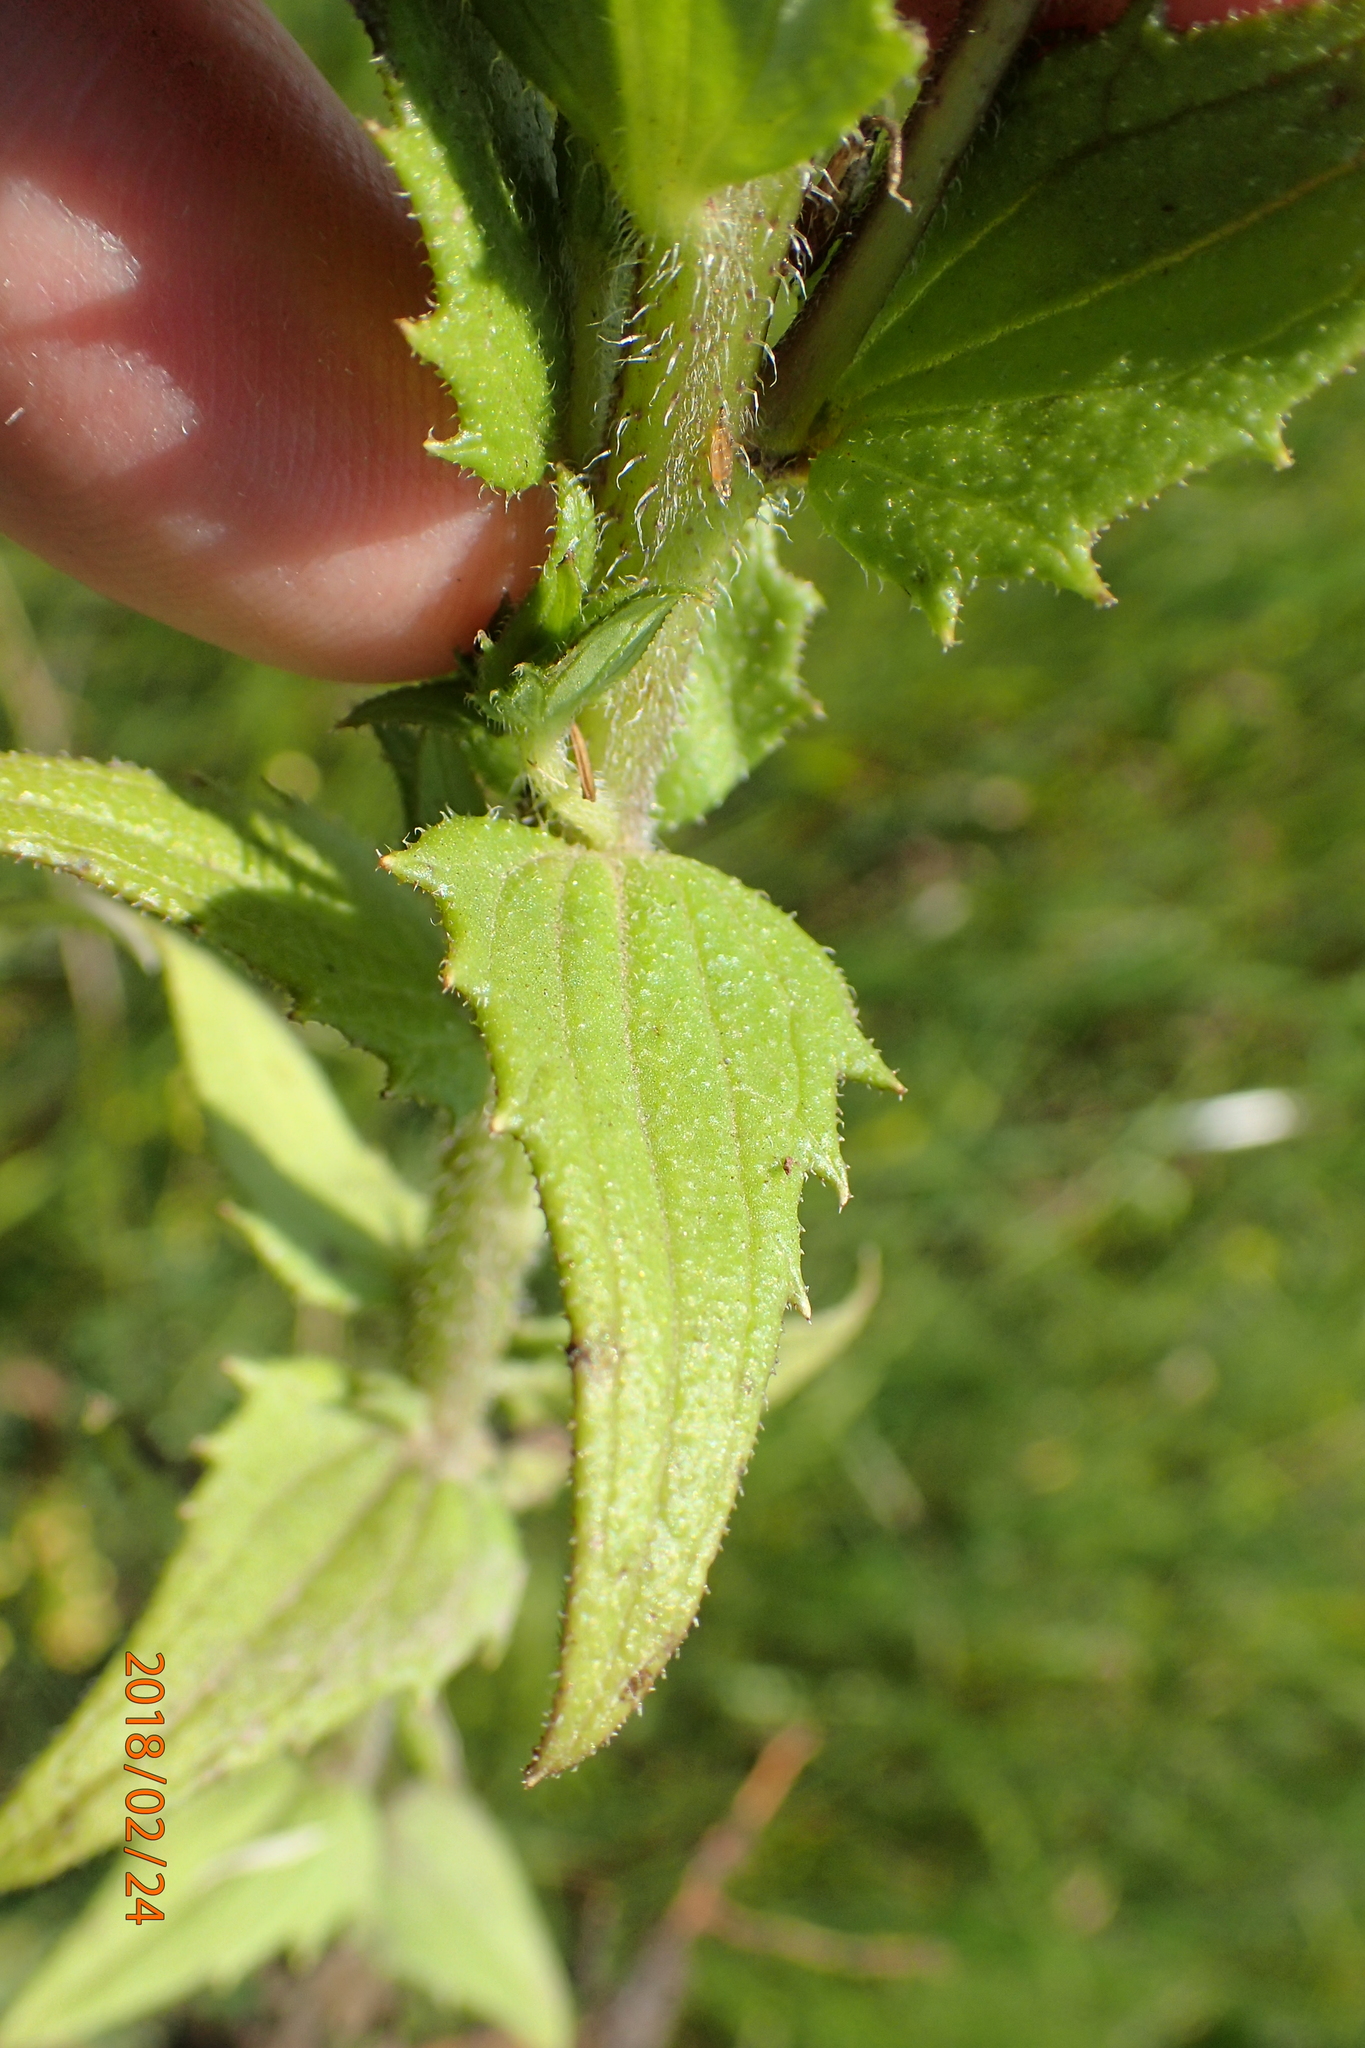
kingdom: Plantae
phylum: Tracheophyta
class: Magnoliopsida
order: Lamiales
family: Orobanchaceae
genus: Alectra
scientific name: Alectra sessiliflora
